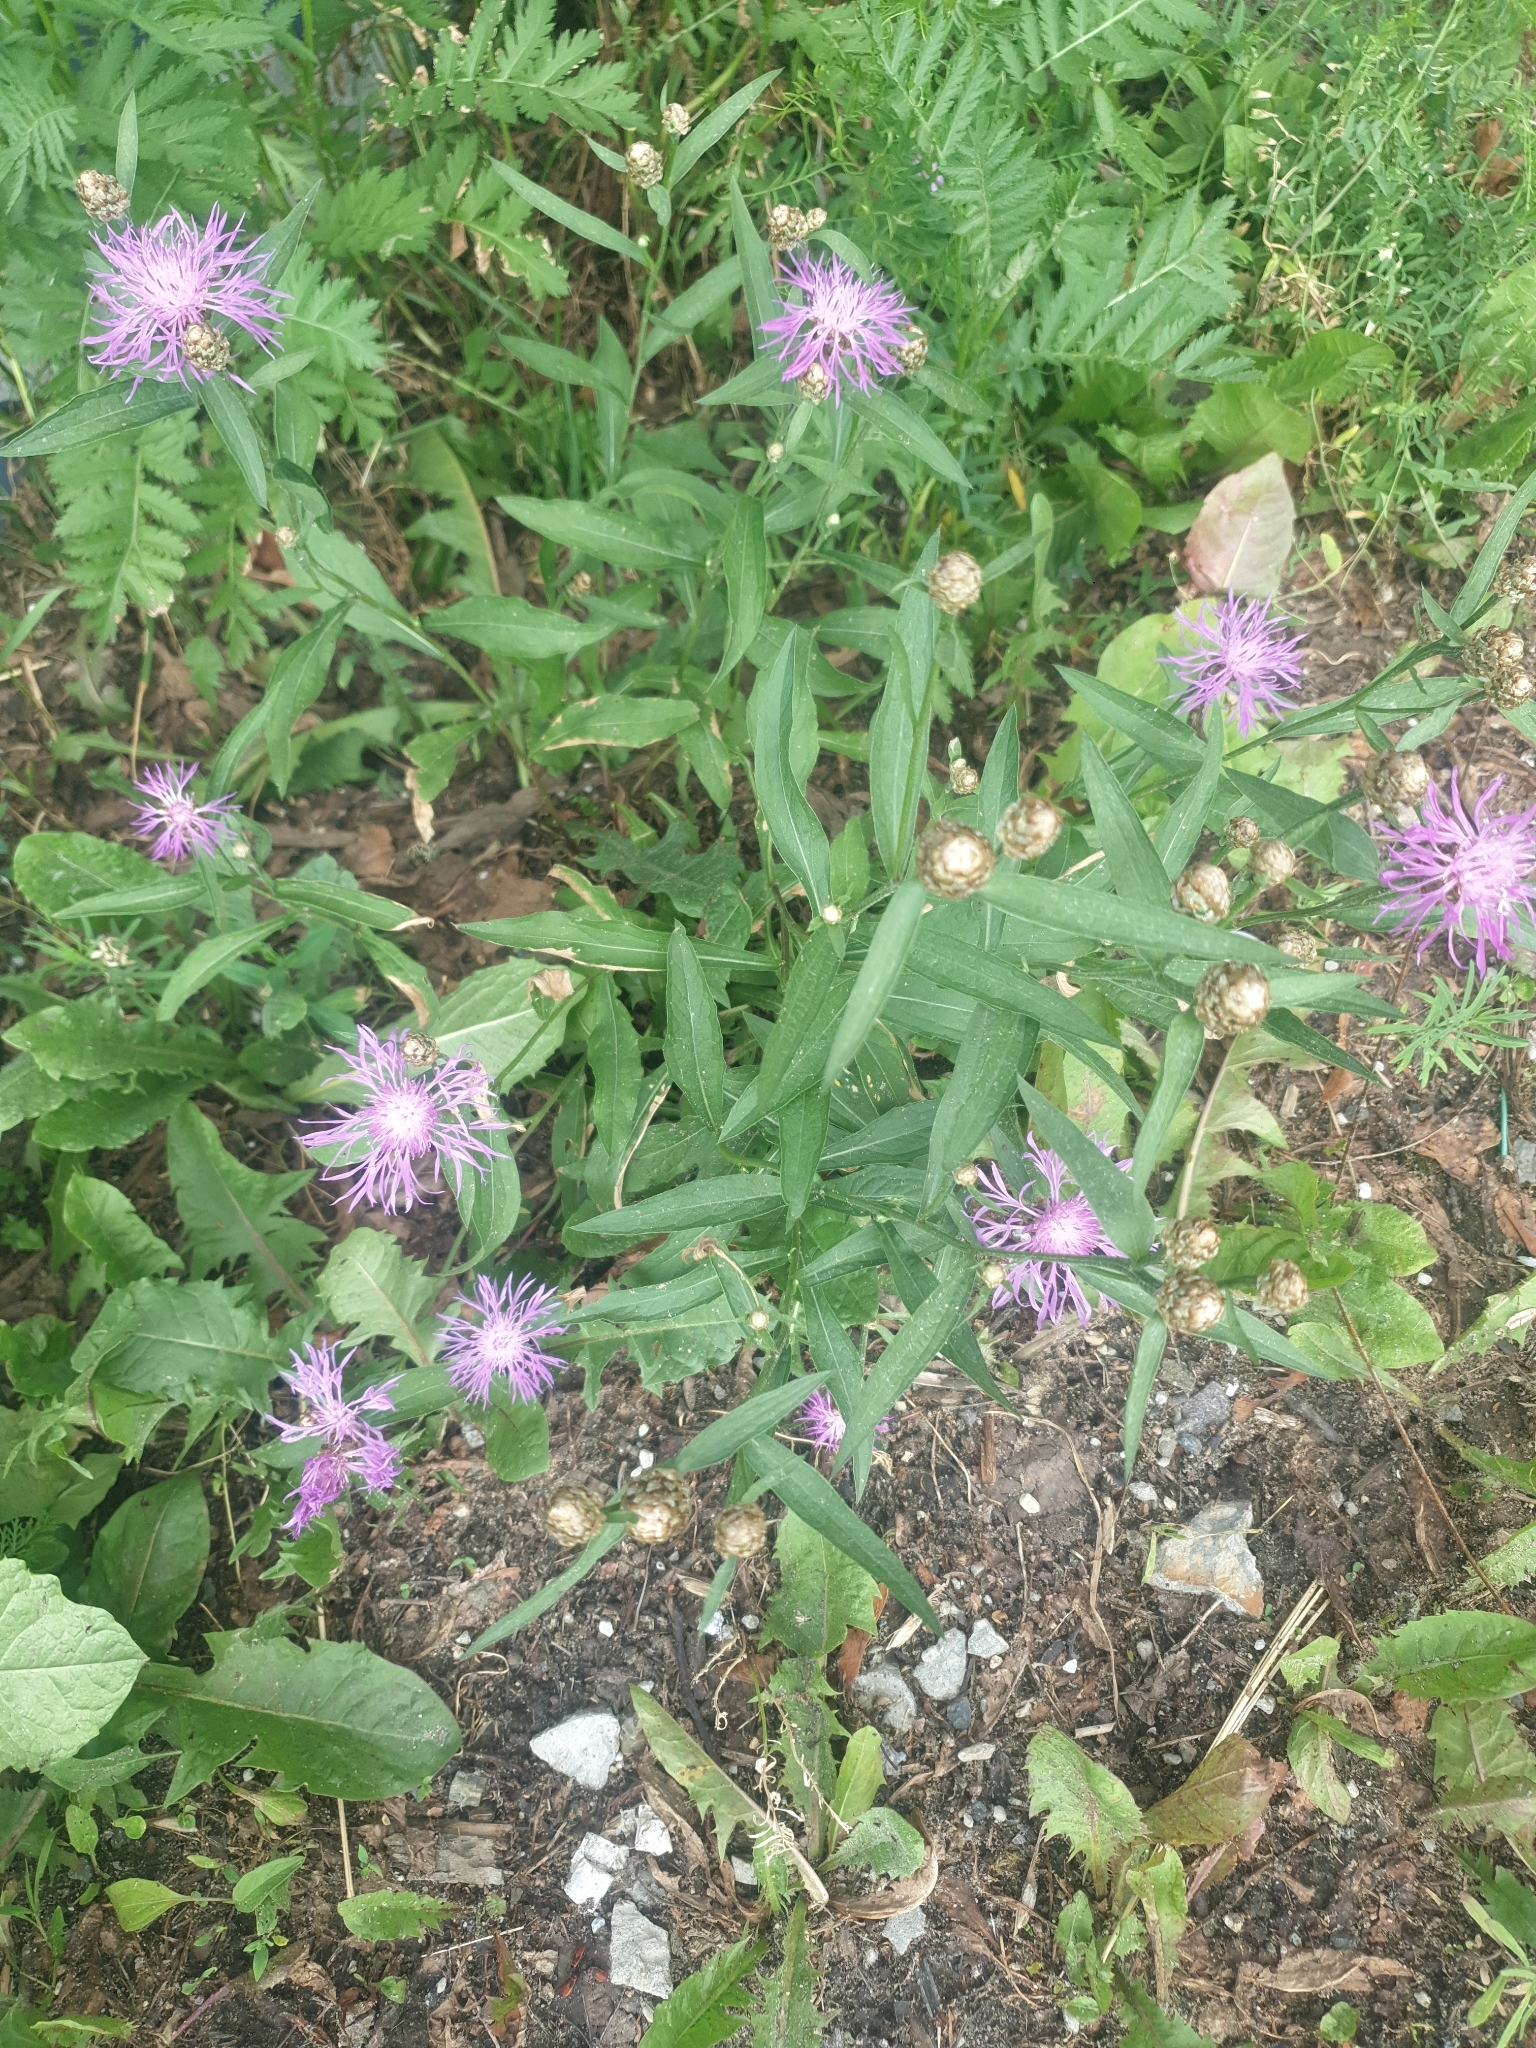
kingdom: Plantae
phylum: Tracheophyta
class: Magnoliopsida
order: Asterales
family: Asteraceae
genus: Centaurea
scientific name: Centaurea jacea
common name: Brown knapweed
